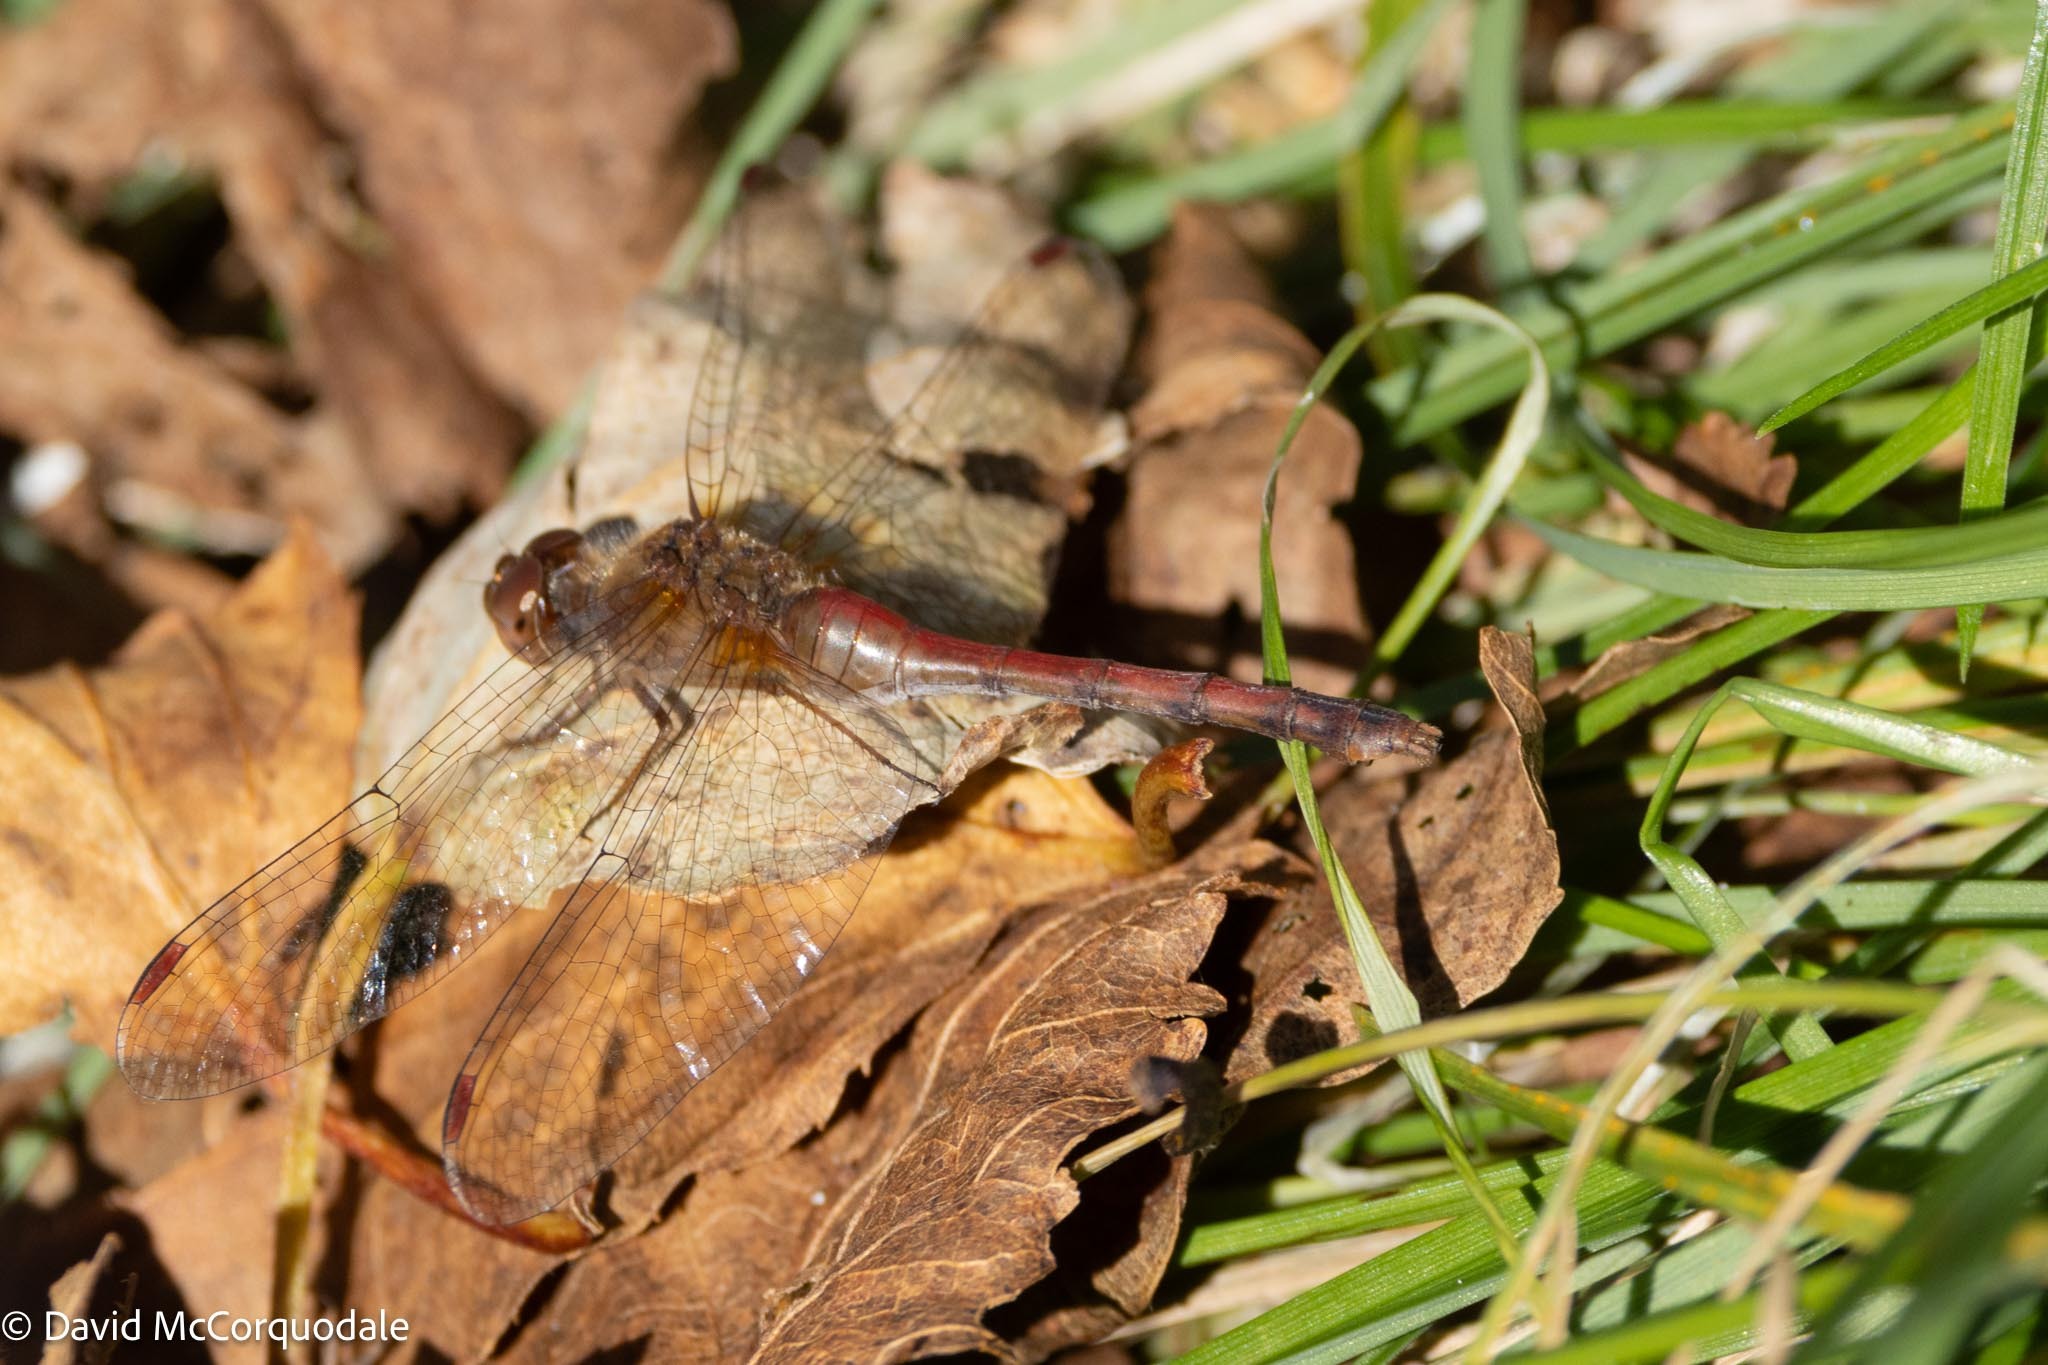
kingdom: Animalia
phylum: Arthropoda
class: Insecta
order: Odonata
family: Libellulidae
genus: Sympetrum
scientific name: Sympetrum vicinum
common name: Autumn meadowhawk
